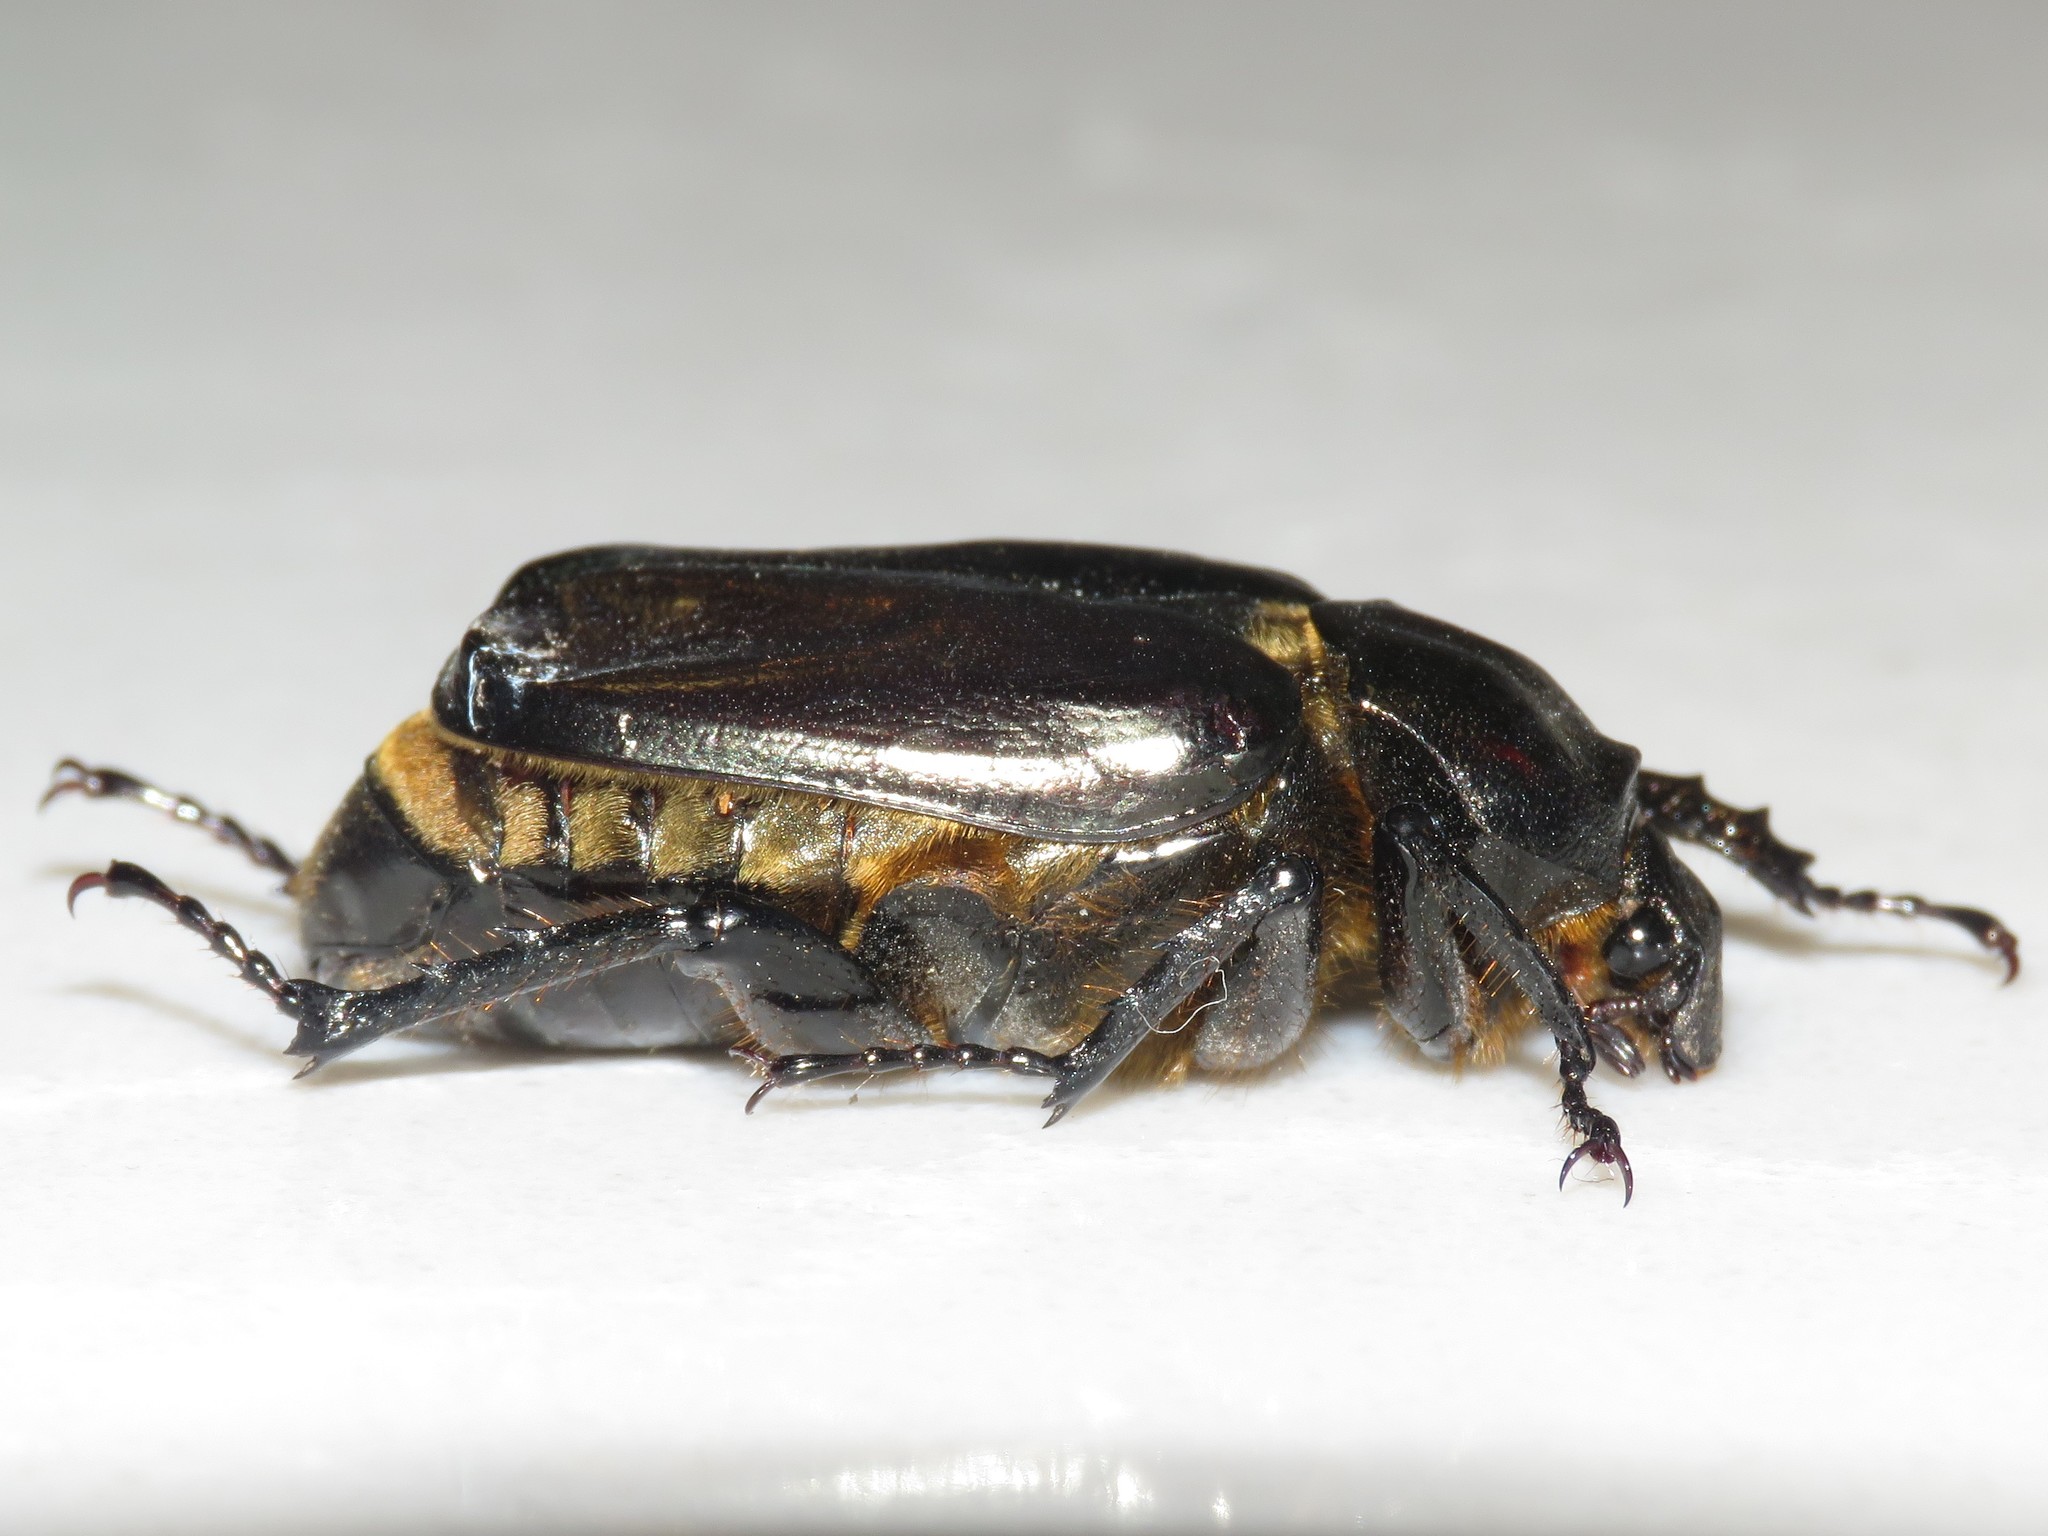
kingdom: Animalia
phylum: Arthropoda
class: Insecta
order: Coleoptera
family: Scarabaeidae
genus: Osmoderma
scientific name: Osmoderma eremicola
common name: Hermit flower beetle
